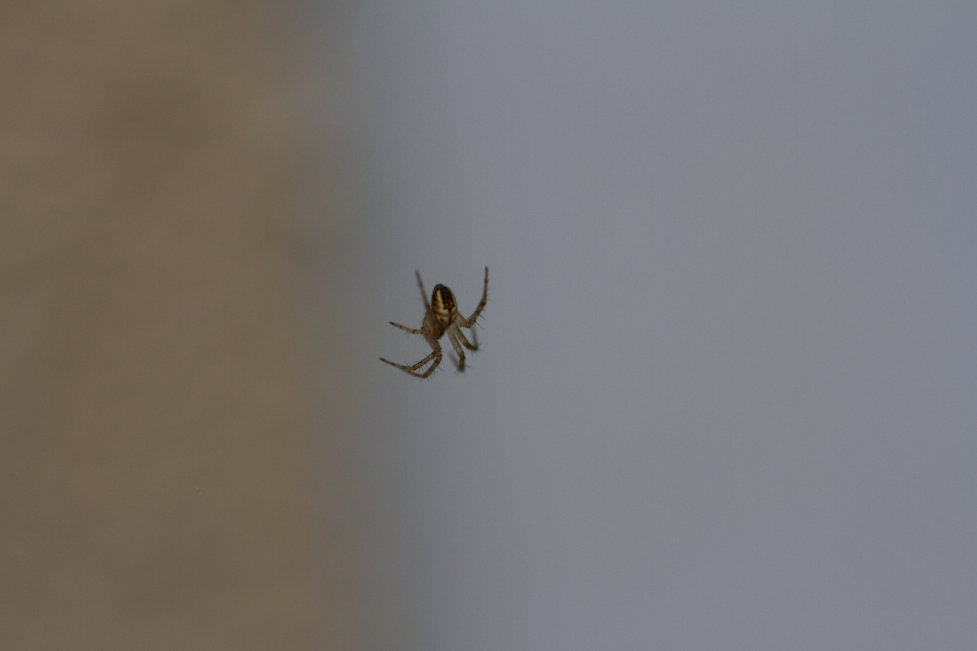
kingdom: Animalia
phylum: Arthropoda
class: Arachnida
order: Araneae
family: Araneidae
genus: Mangora
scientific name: Mangora acalypha
